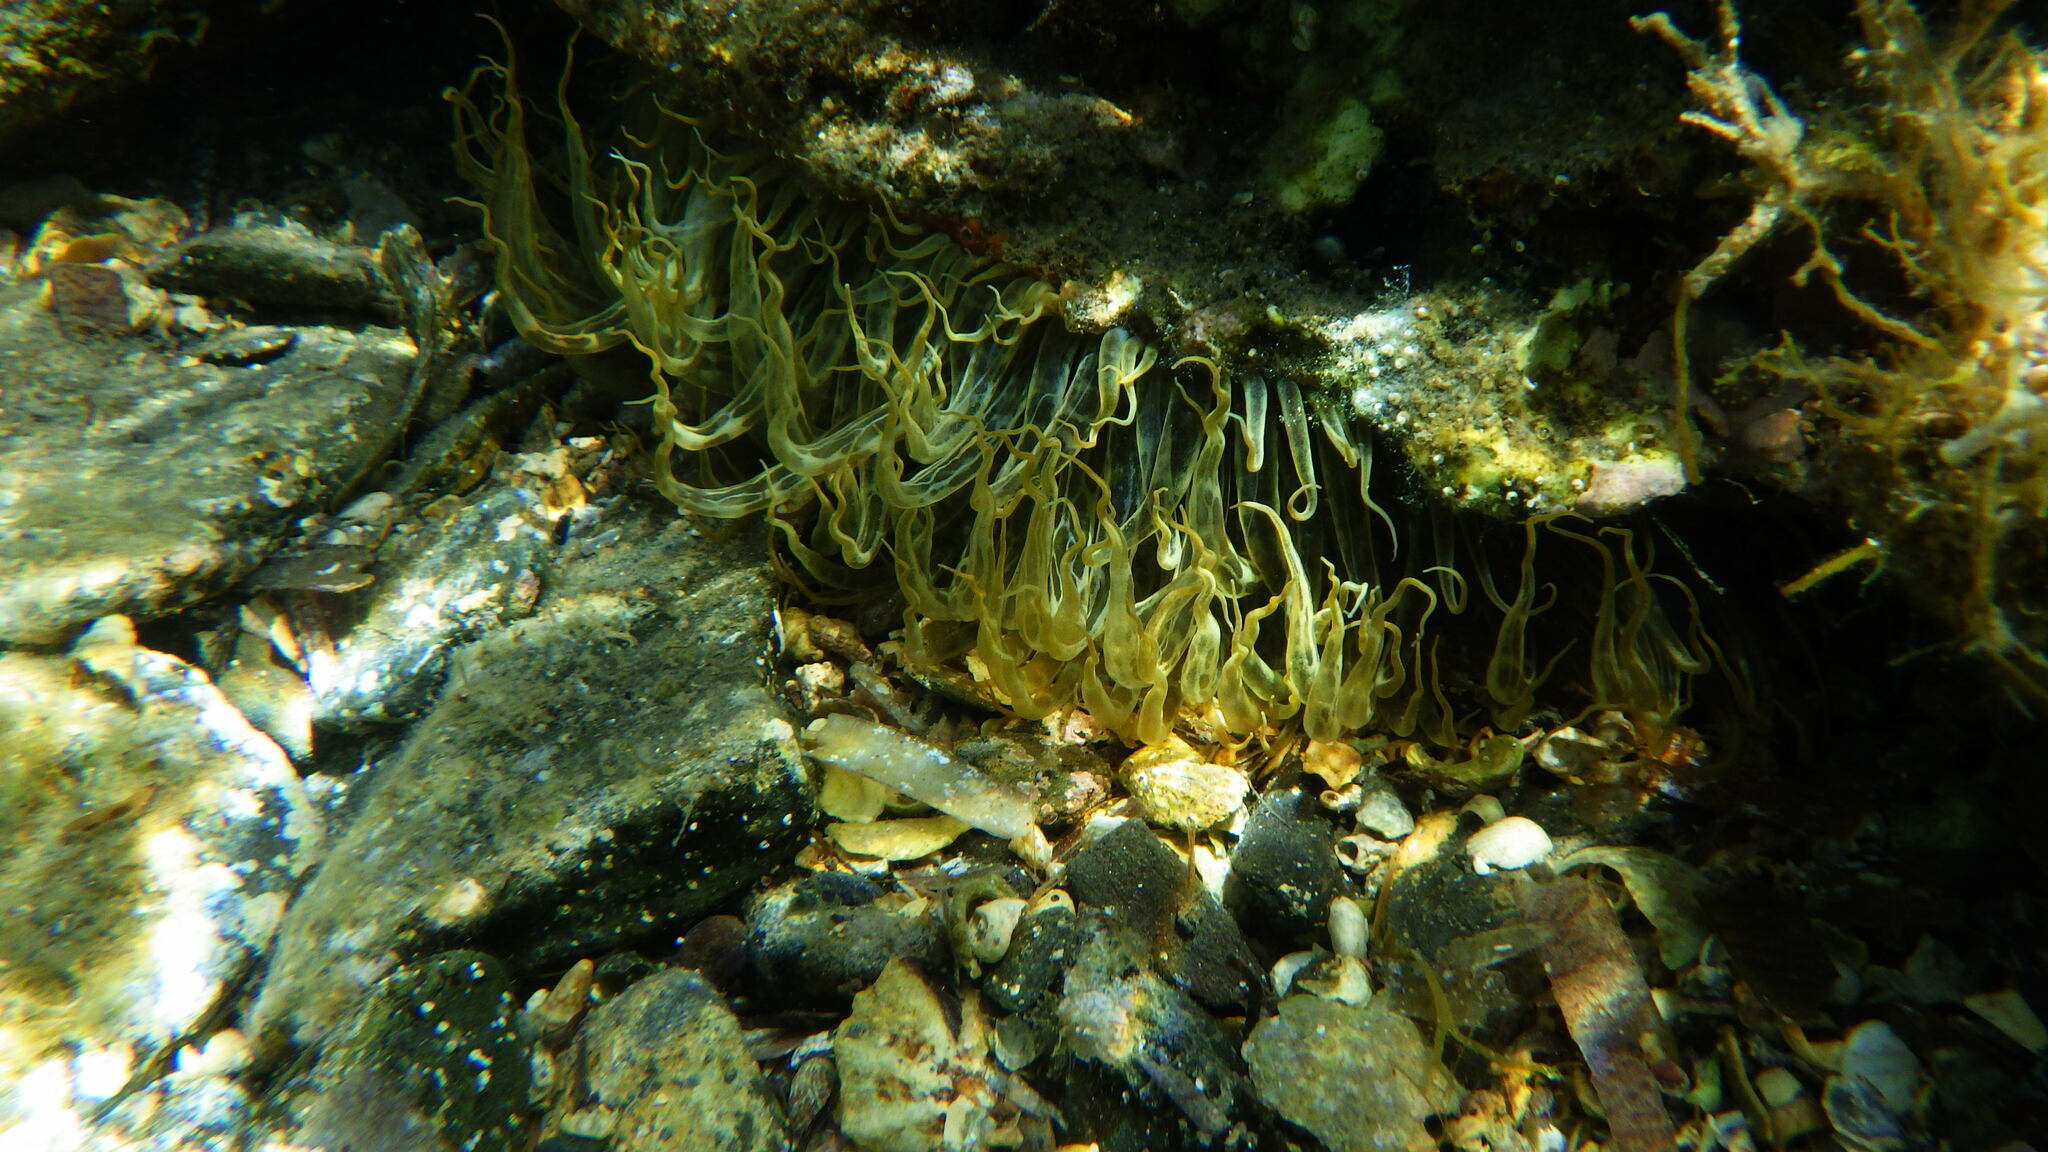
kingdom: Animalia
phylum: Cnidaria
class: Anthozoa
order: Actiniaria
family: Aiptasiidae
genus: Aiptasia
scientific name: Aiptasia mutabilis
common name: Trumpet anemone
